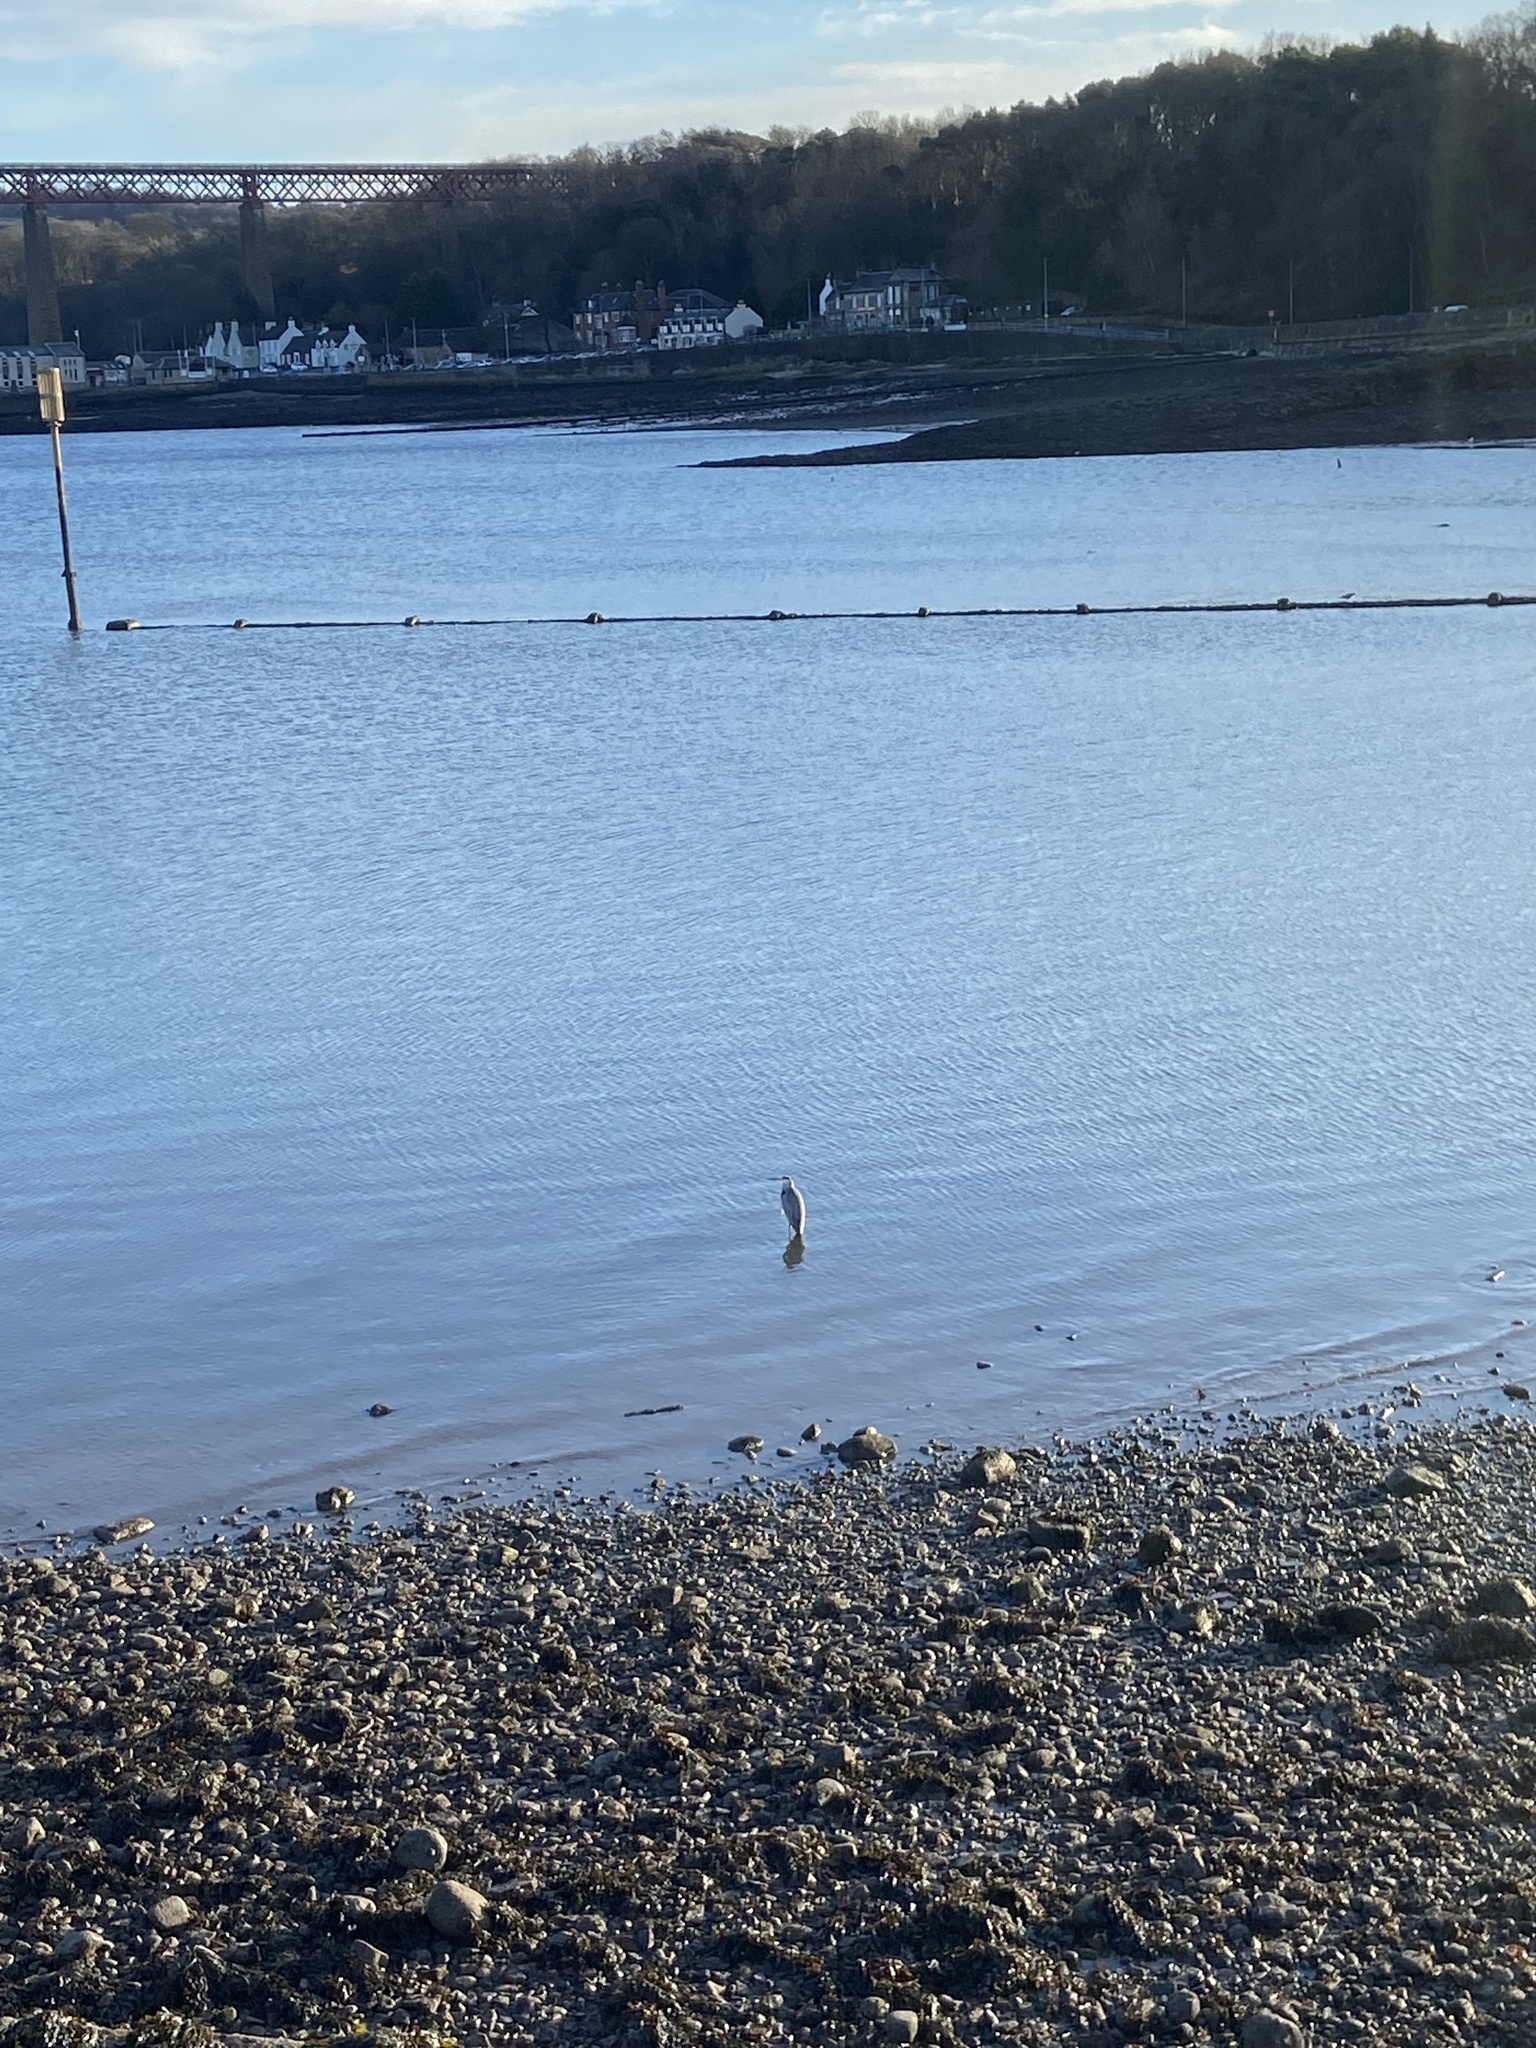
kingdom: Animalia
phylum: Chordata
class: Aves
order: Pelecaniformes
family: Ardeidae
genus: Ardea
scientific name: Ardea cinerea
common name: Grey heron
